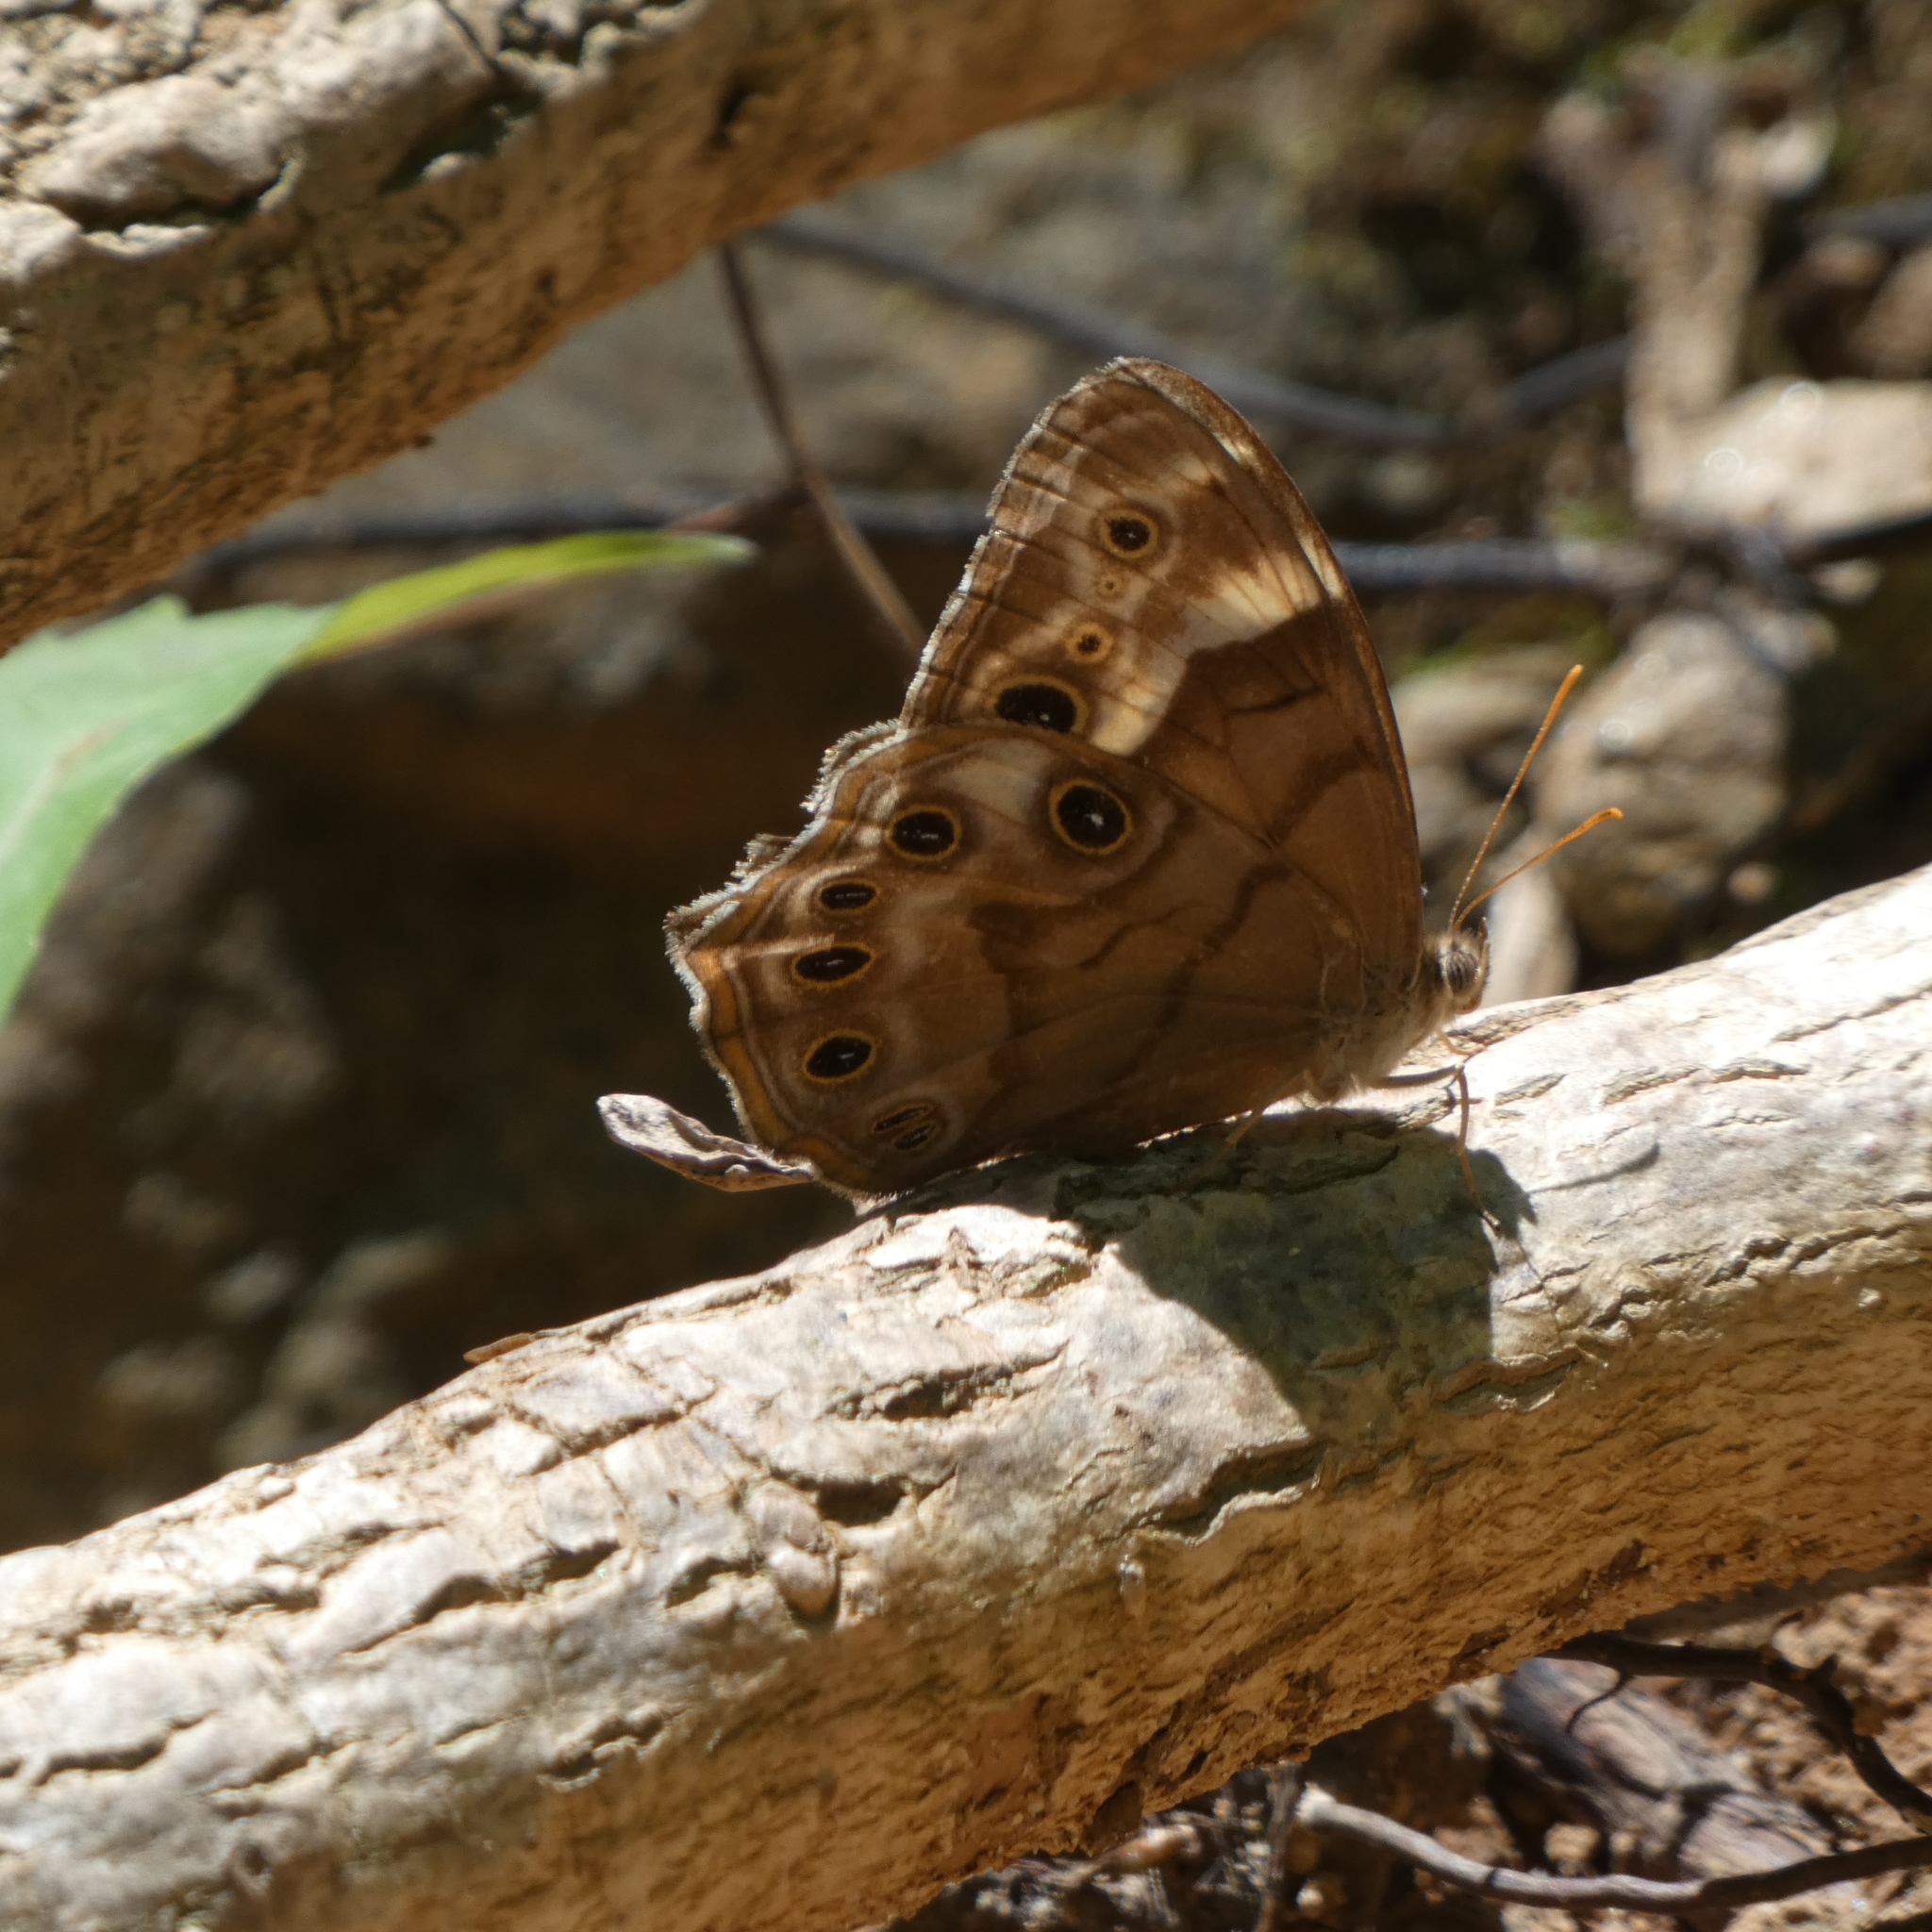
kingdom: Animalia
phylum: Arthropoda
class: Insecta
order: Lepidoptera
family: Nymphalidae
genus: Enodia
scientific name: Enodia portlandia
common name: Southern pearly-eye
